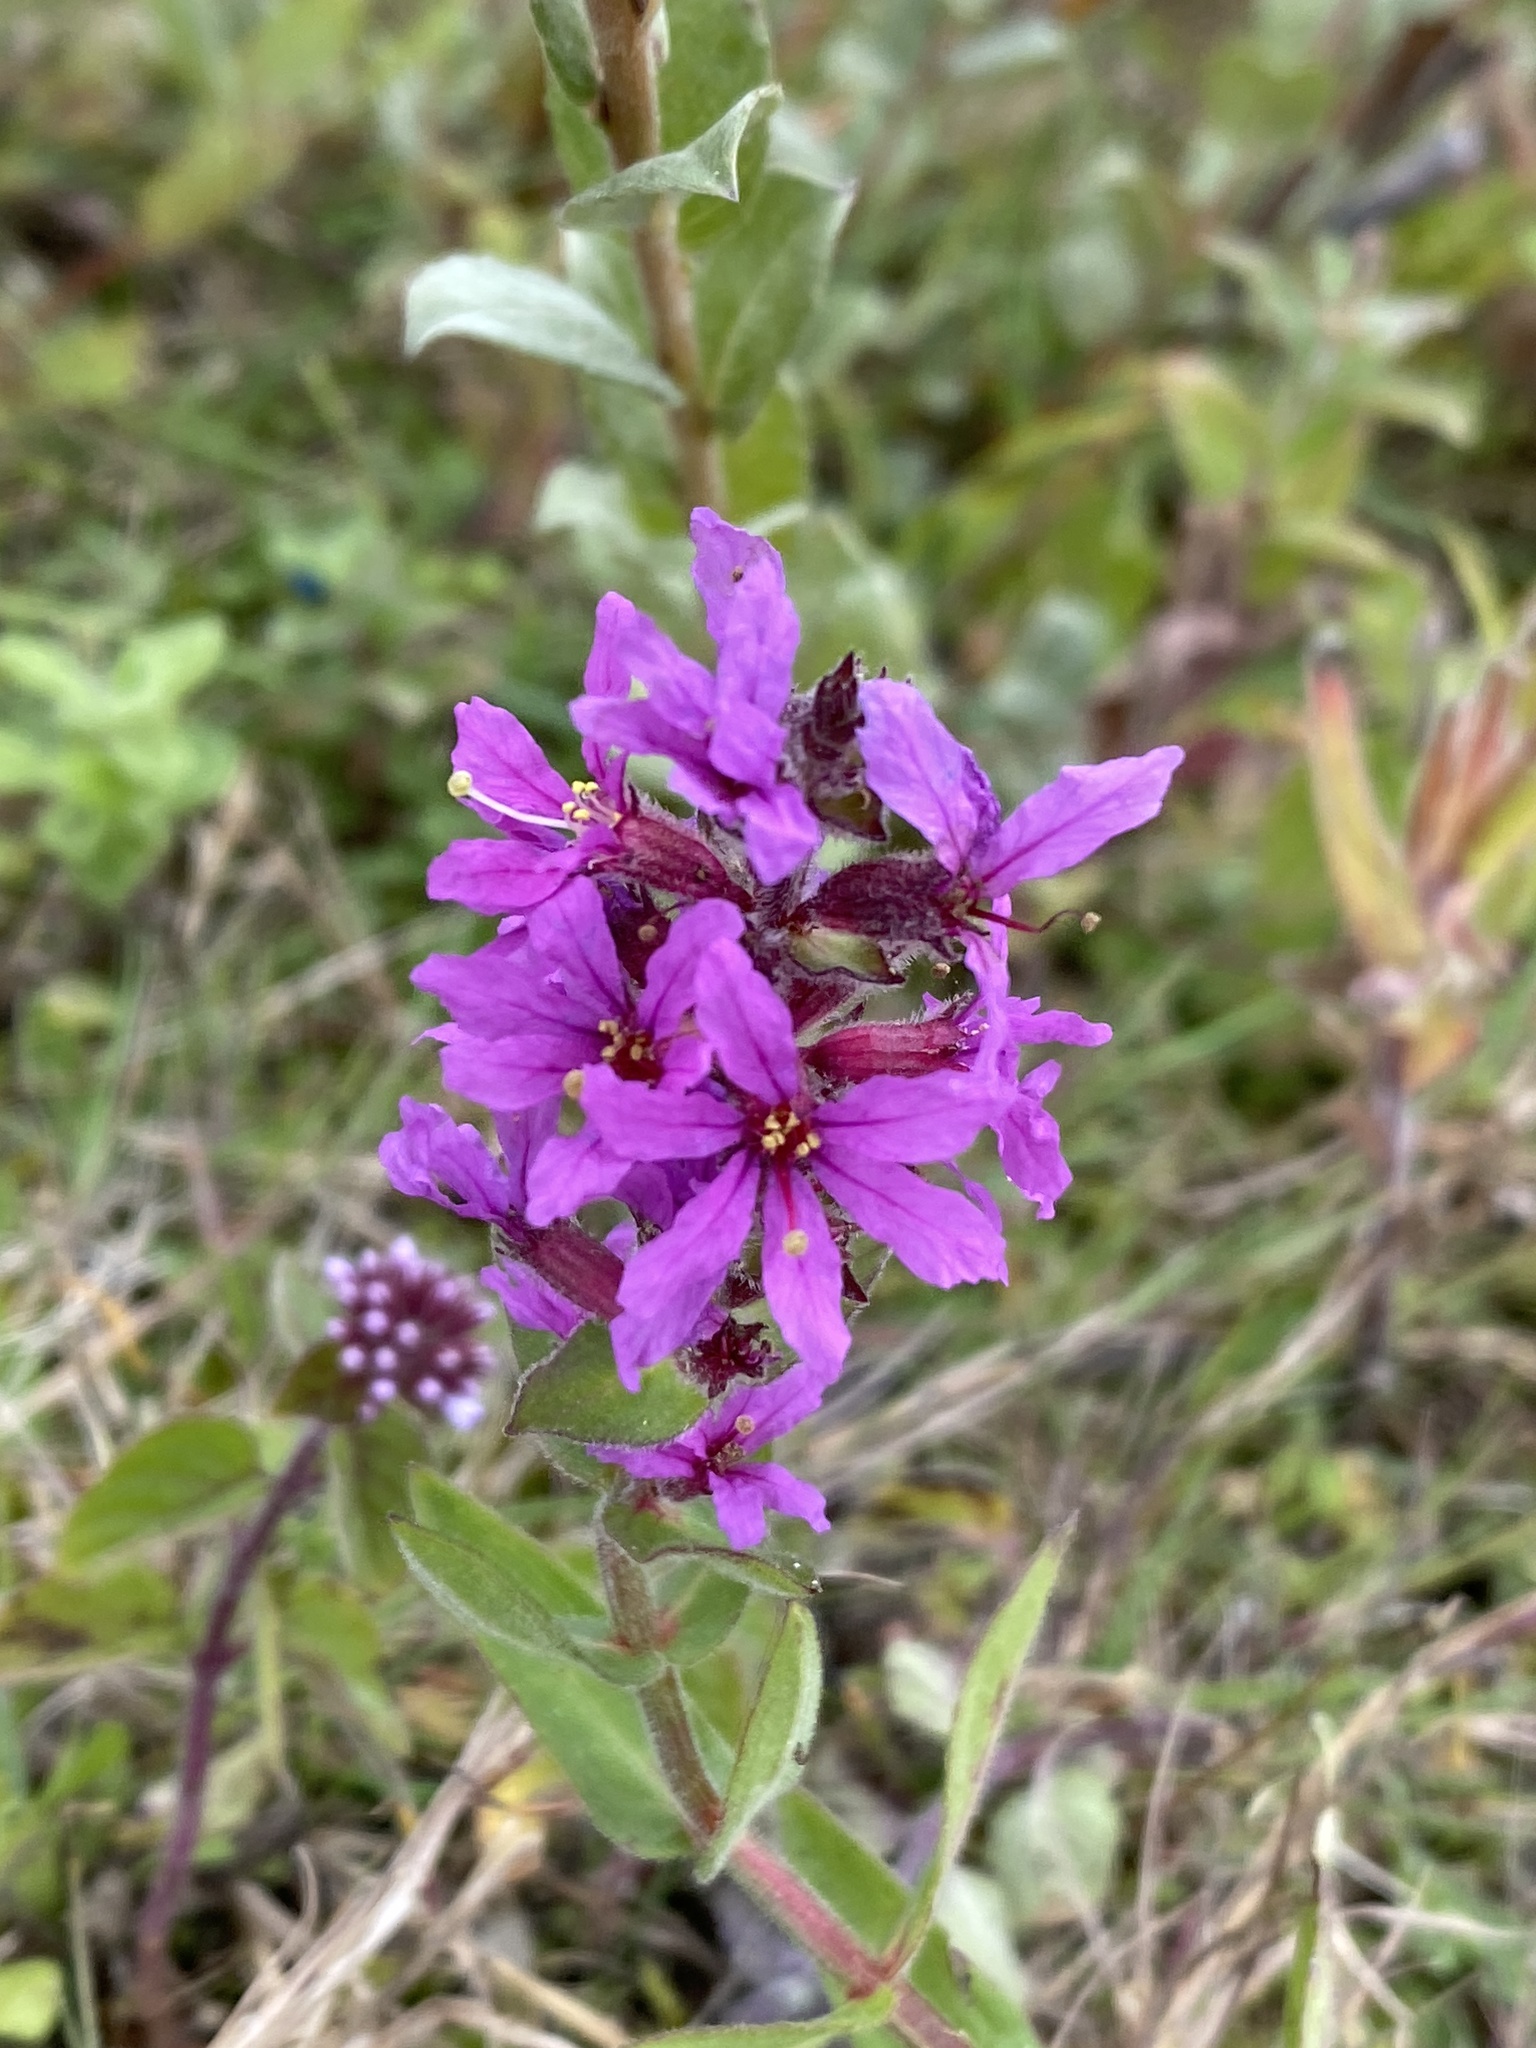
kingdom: Plantae
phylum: Tracheophyta
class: Magnoliopsida
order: Myrtales
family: Lythraceae
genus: Lythrum
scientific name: Lythrum salicaria
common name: Purple loosestrife
